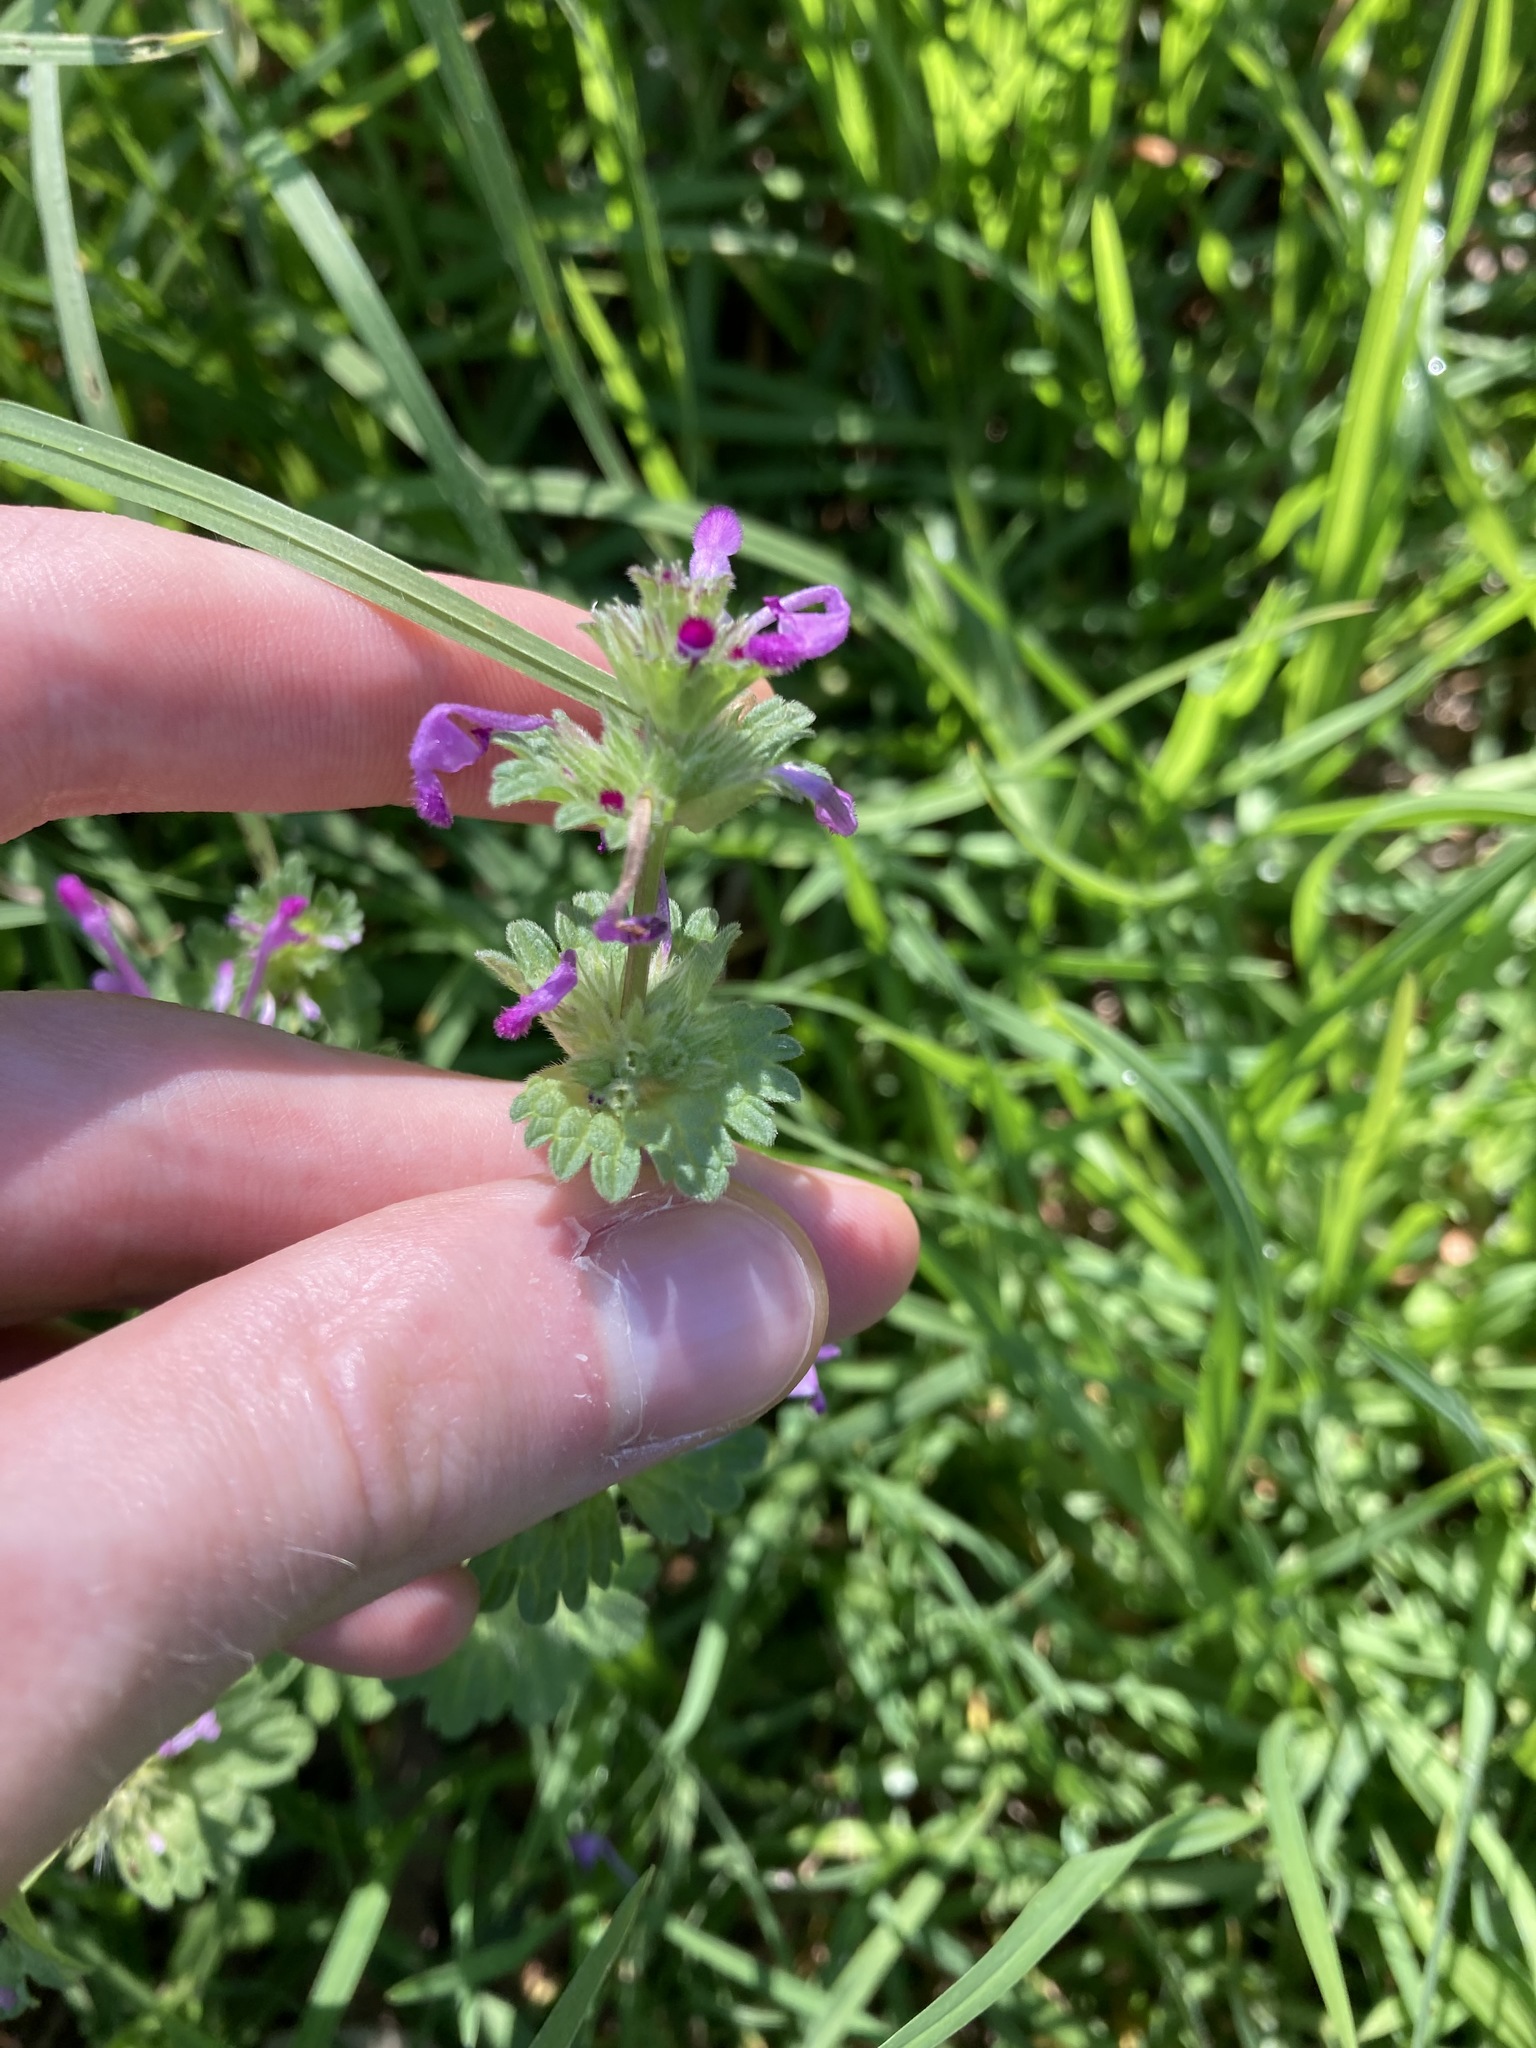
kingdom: Plantae
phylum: Tracheophyta
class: Magnoliopsida
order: Lamiales
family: Lamiaceae
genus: Lamium
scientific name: Lamium amplexicaule
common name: Henbit dead-nettle
